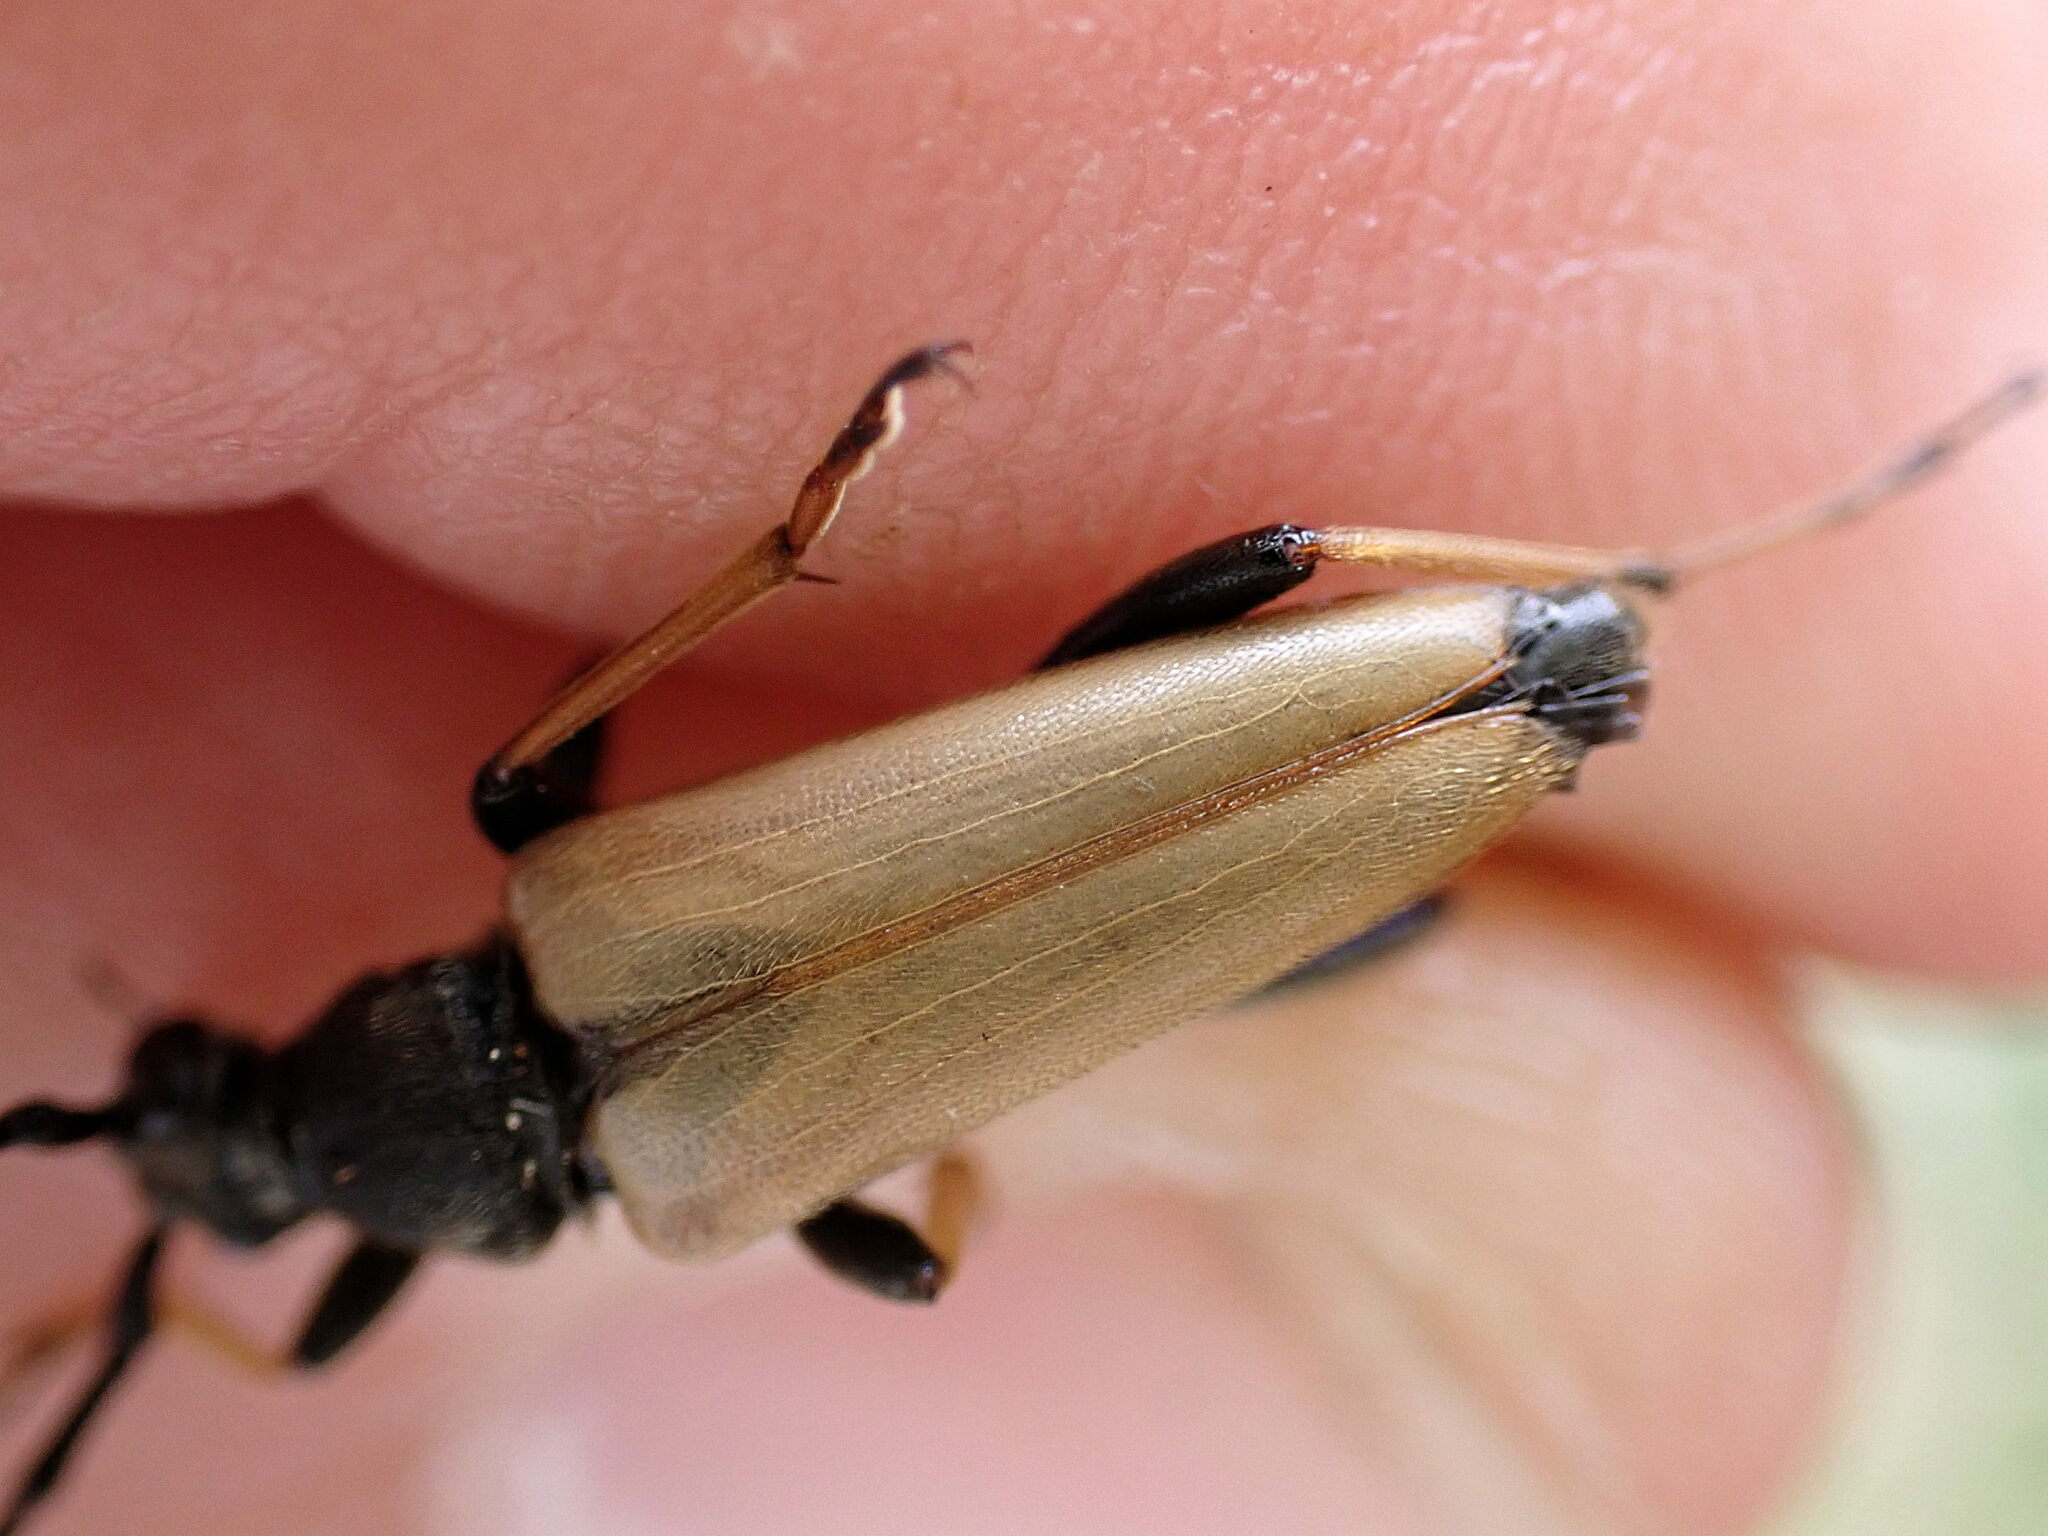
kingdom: Animalia
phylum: Arthropoda
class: Insecta
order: Coleoptera
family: Cerambycidae
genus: Stictoleptura
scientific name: Stictoleptura rubra
